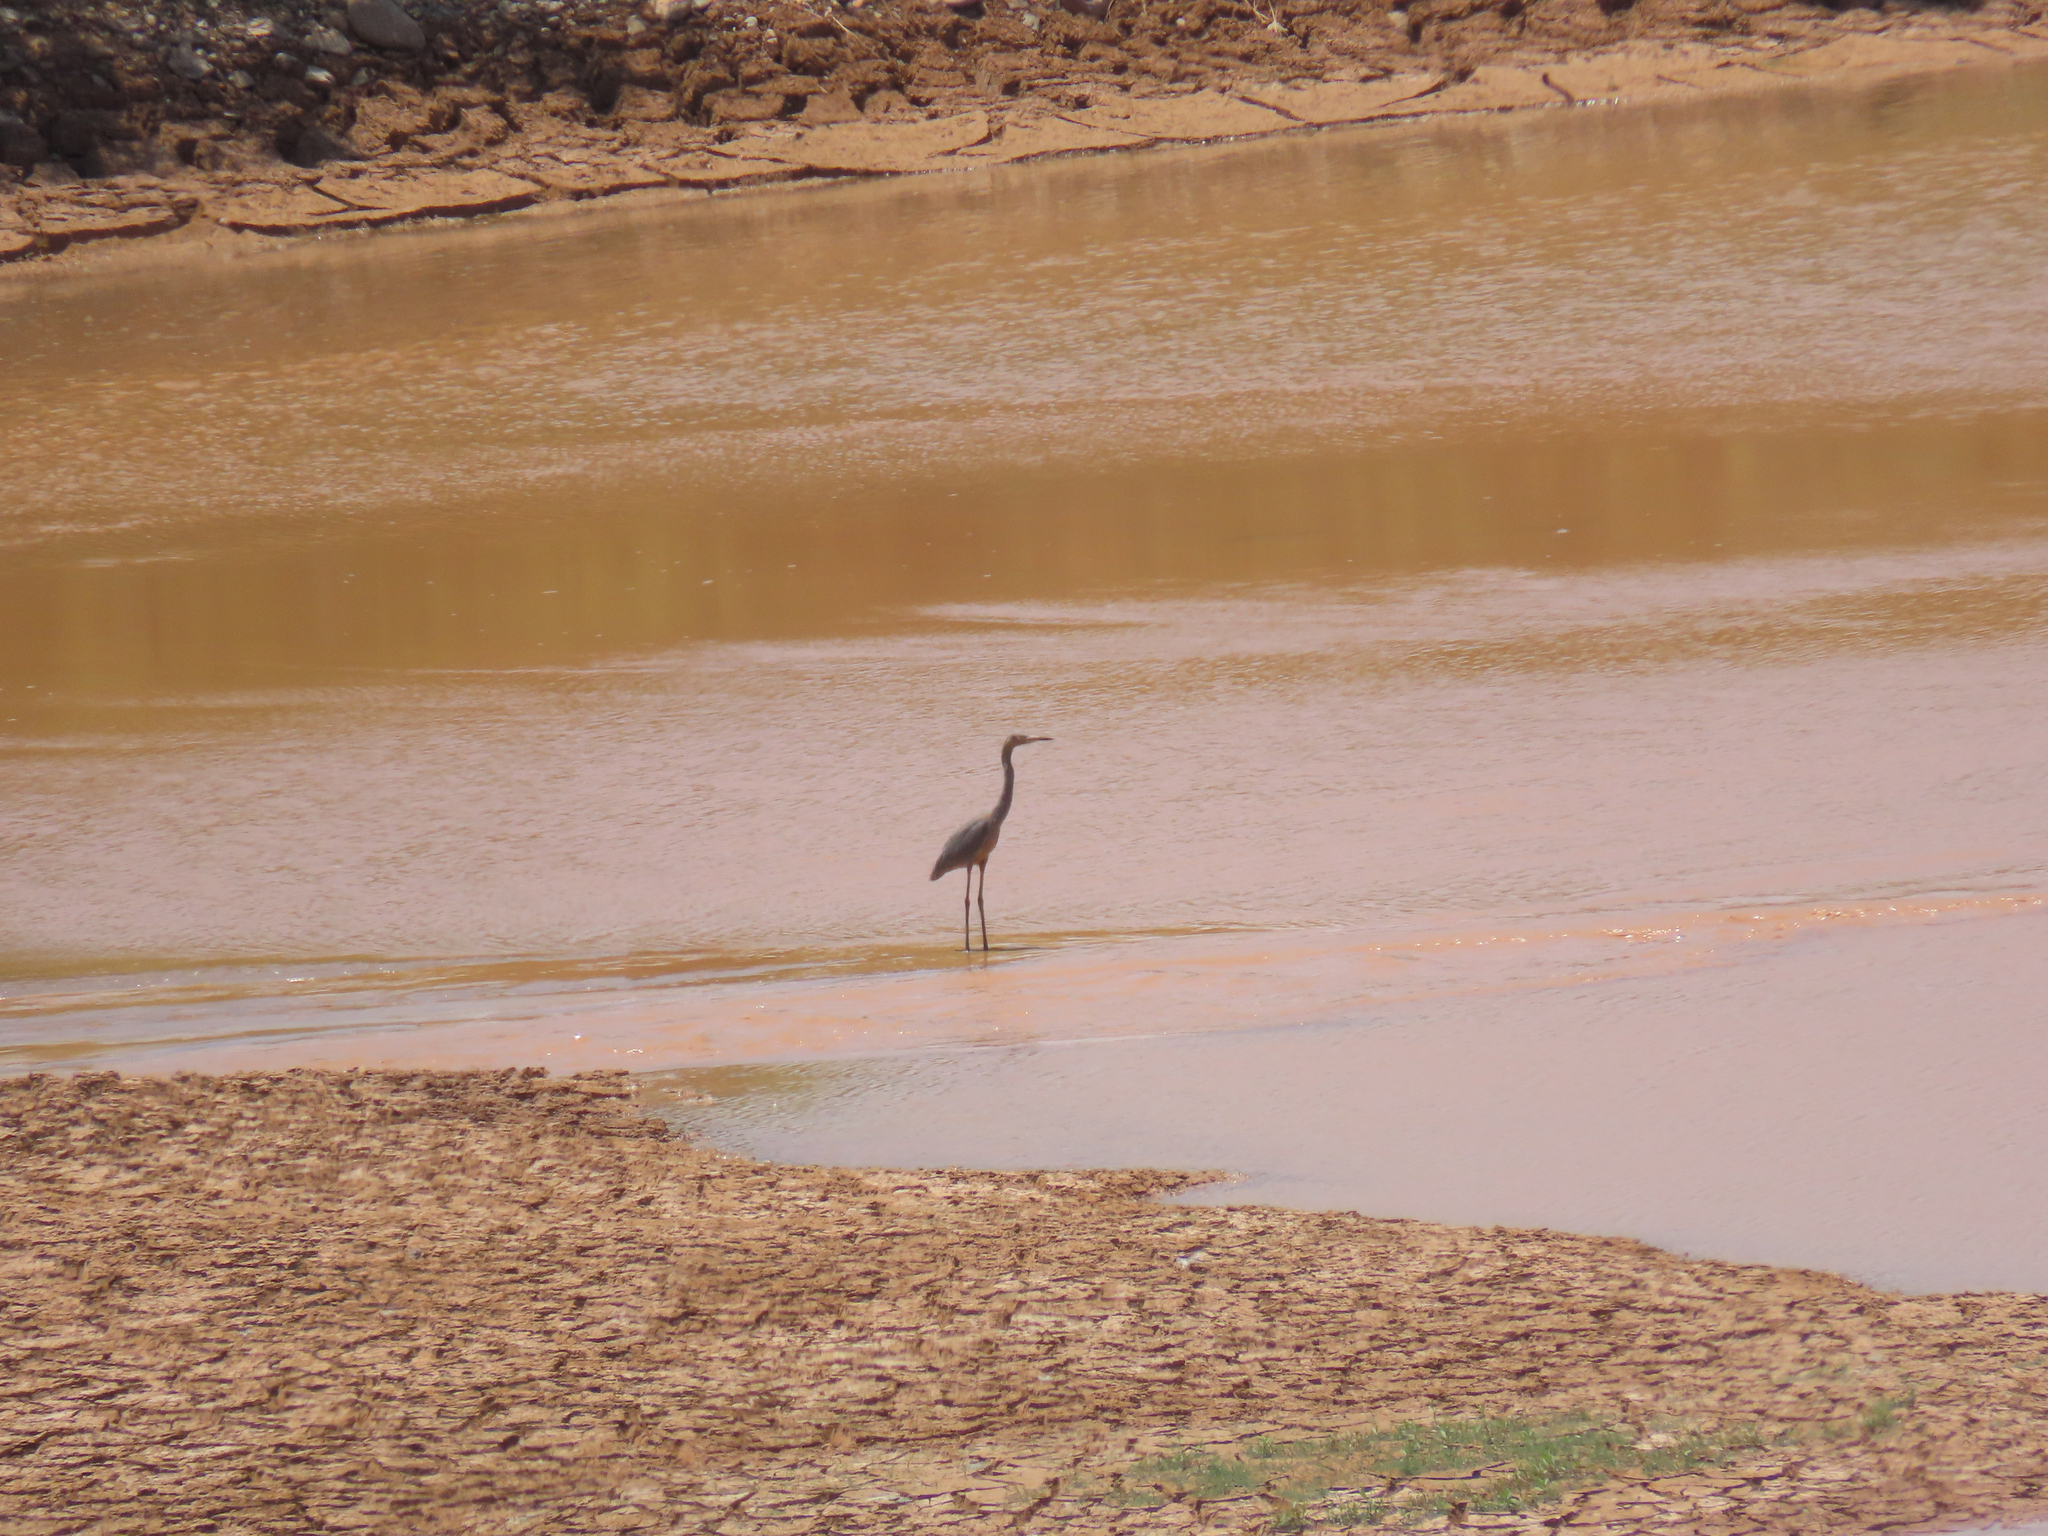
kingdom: Animalia
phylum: Chordata
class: Aves
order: Pelecaniformes
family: Ardeidae
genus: Egretta
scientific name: Egretta rufescens
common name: Reddish egret
